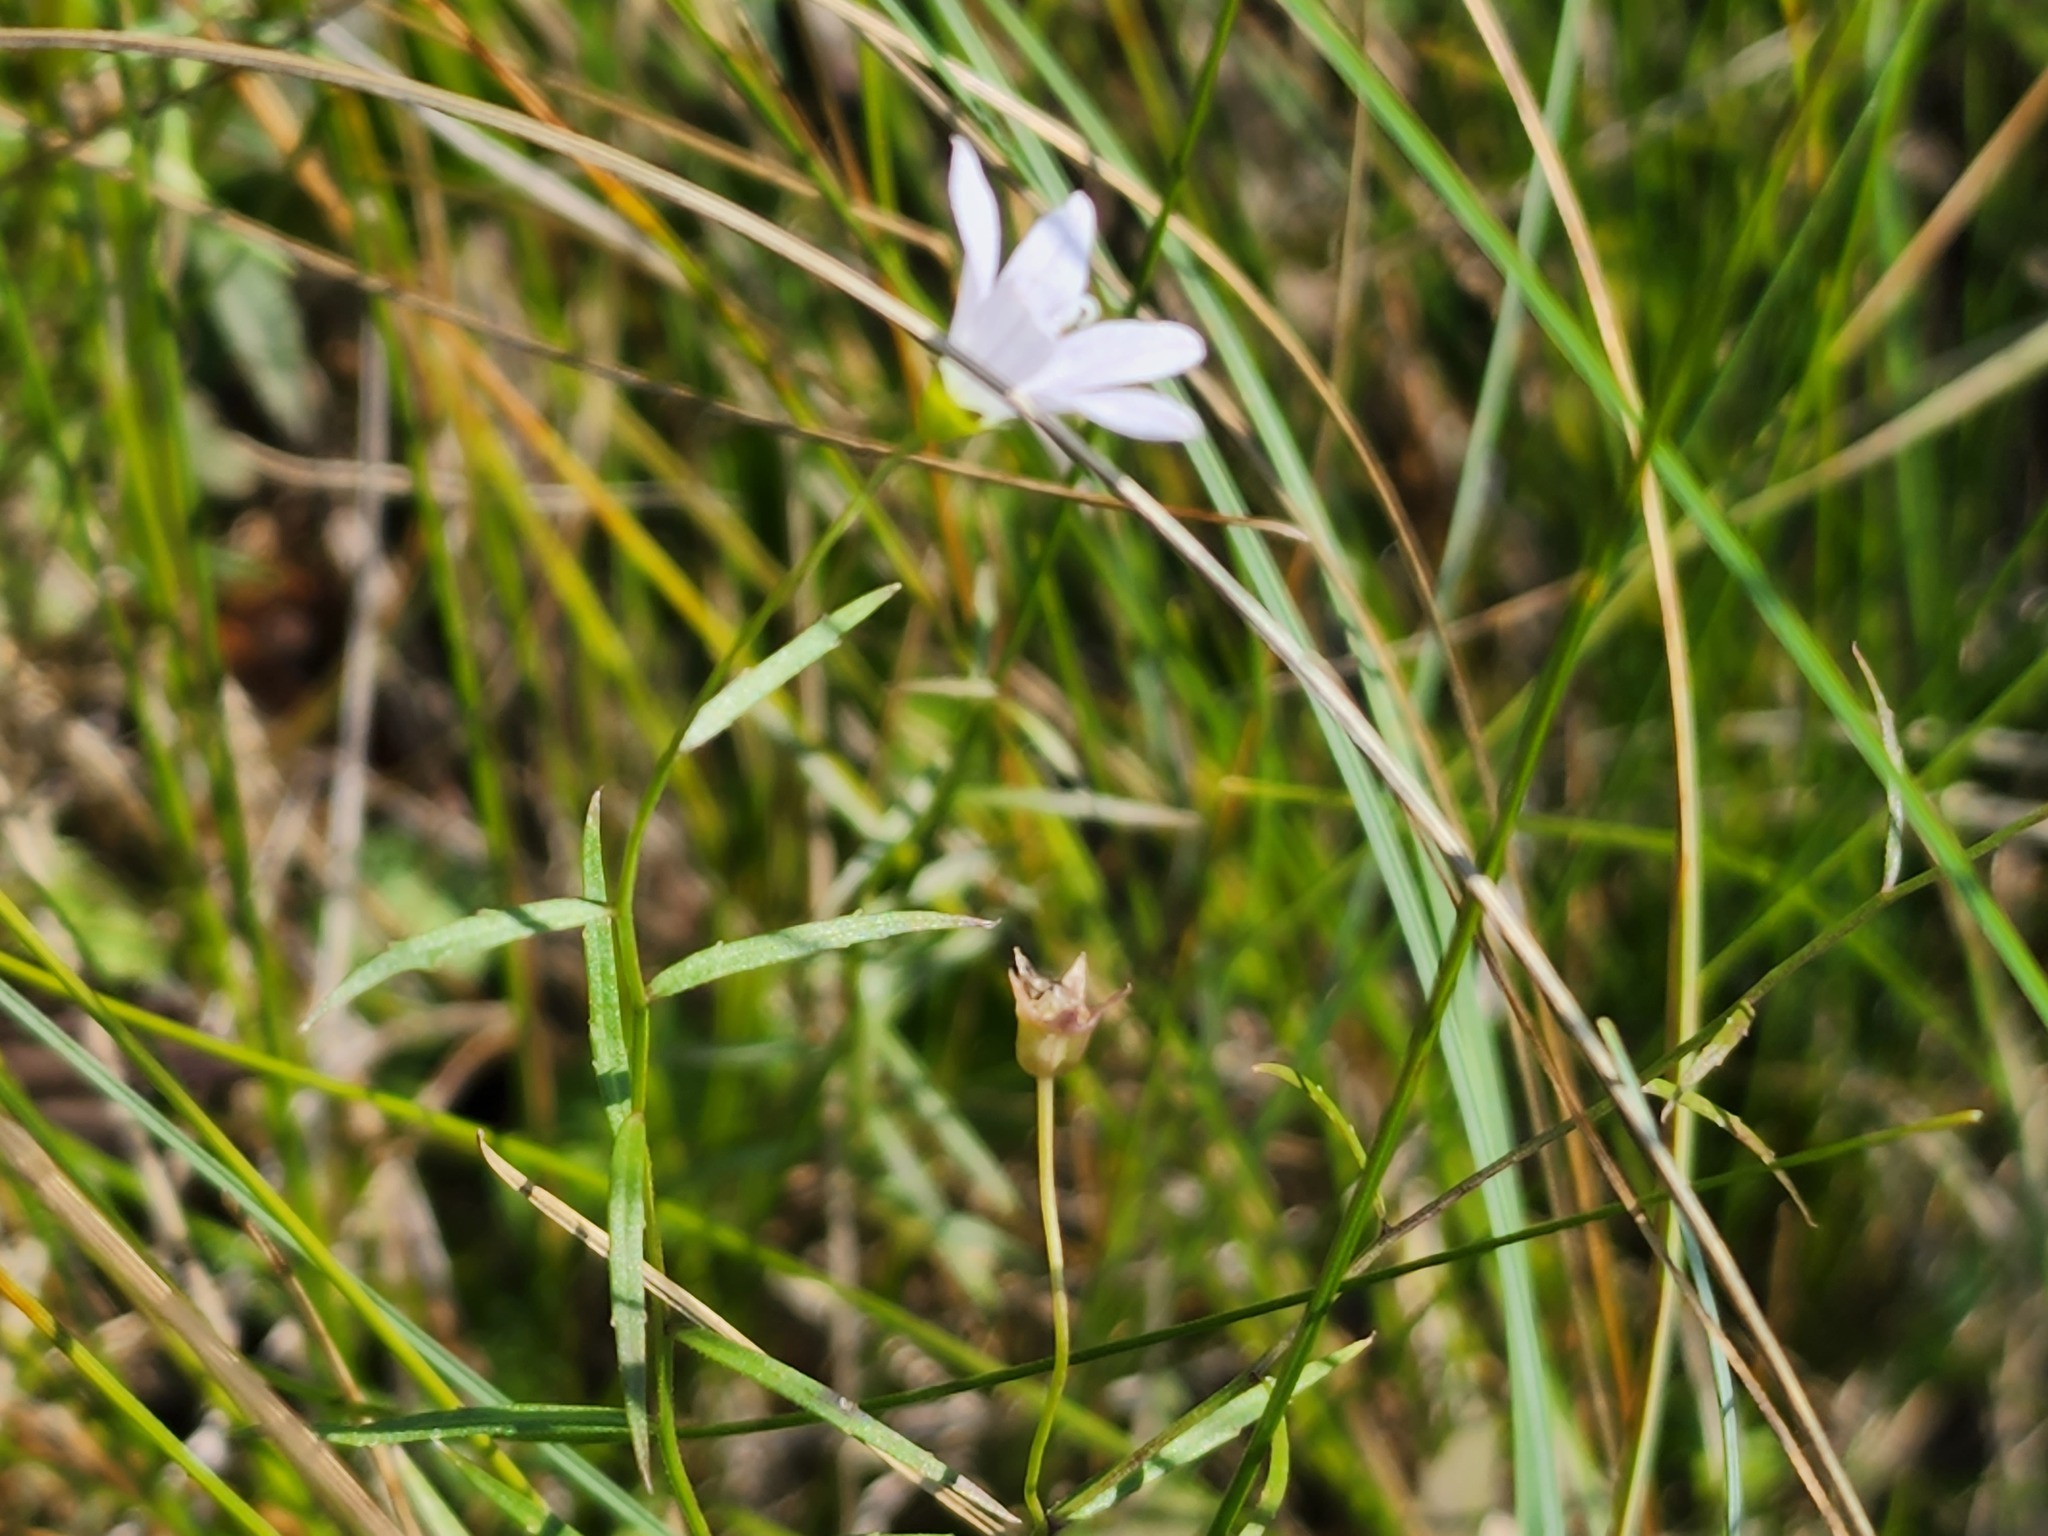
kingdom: Plantae
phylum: Tracheophyta
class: Magnoliopsida
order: Asterales
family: Campanulaceae
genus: Palustricodon
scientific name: Palustricodon aparinoides
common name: Bedstraw bellflower
